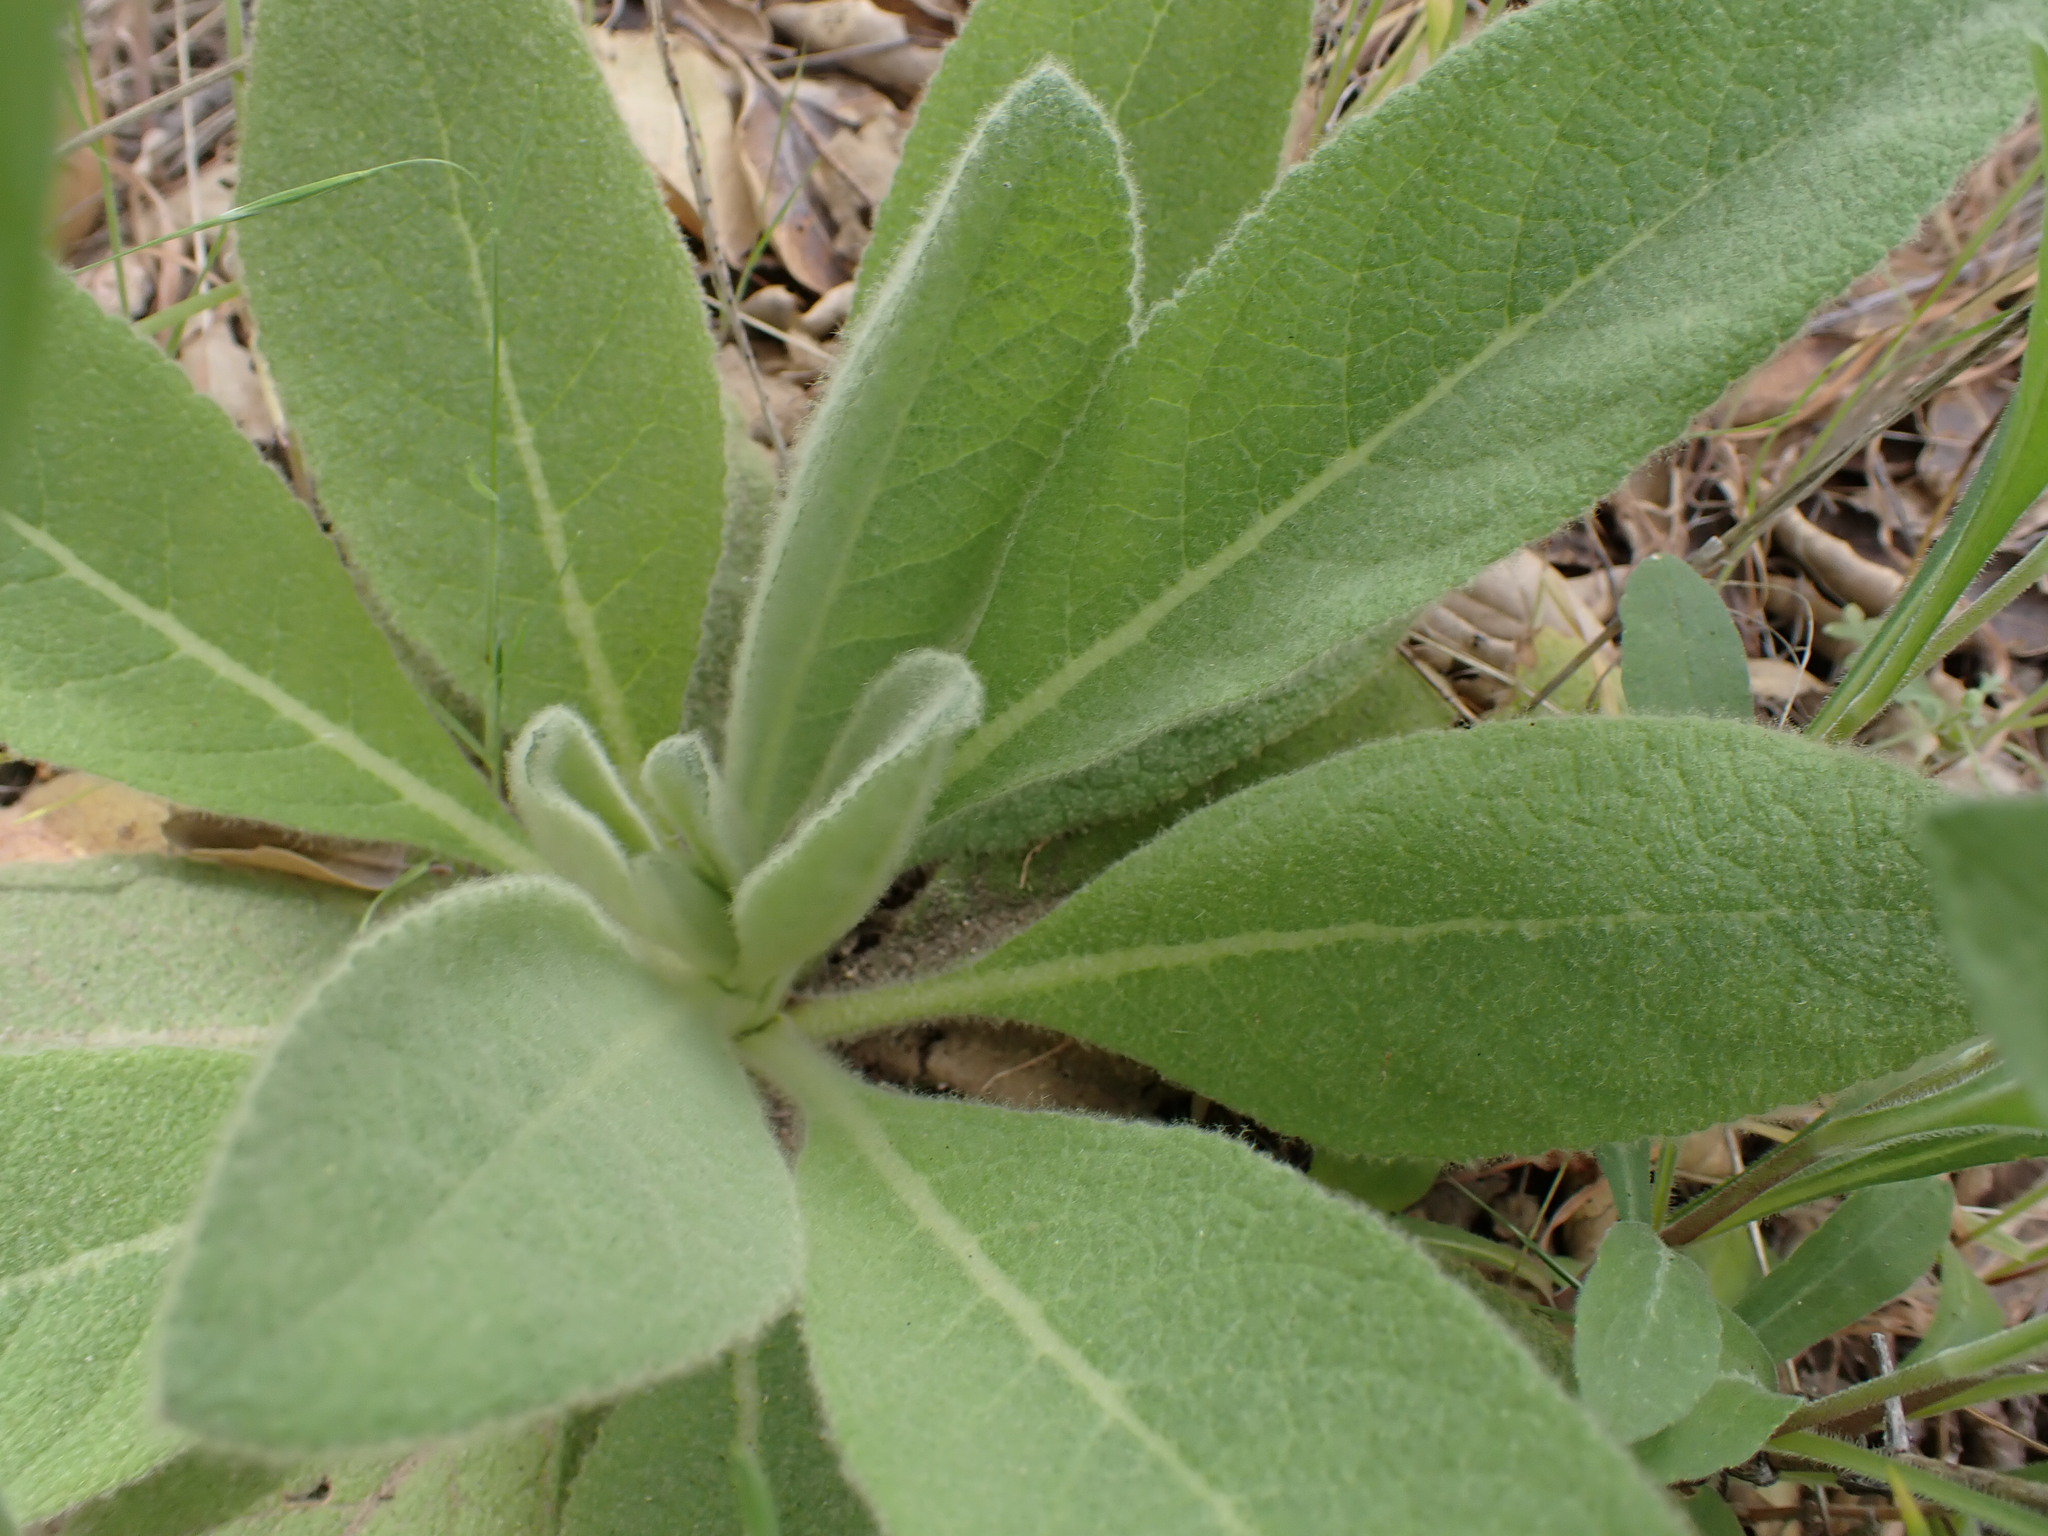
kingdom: Plantae
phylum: Tracheophyta
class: Magnoliopsida
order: Lamiales
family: Scrophulariaceae
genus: Verbascum
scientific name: Verbascum thapsus
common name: Common mullein
